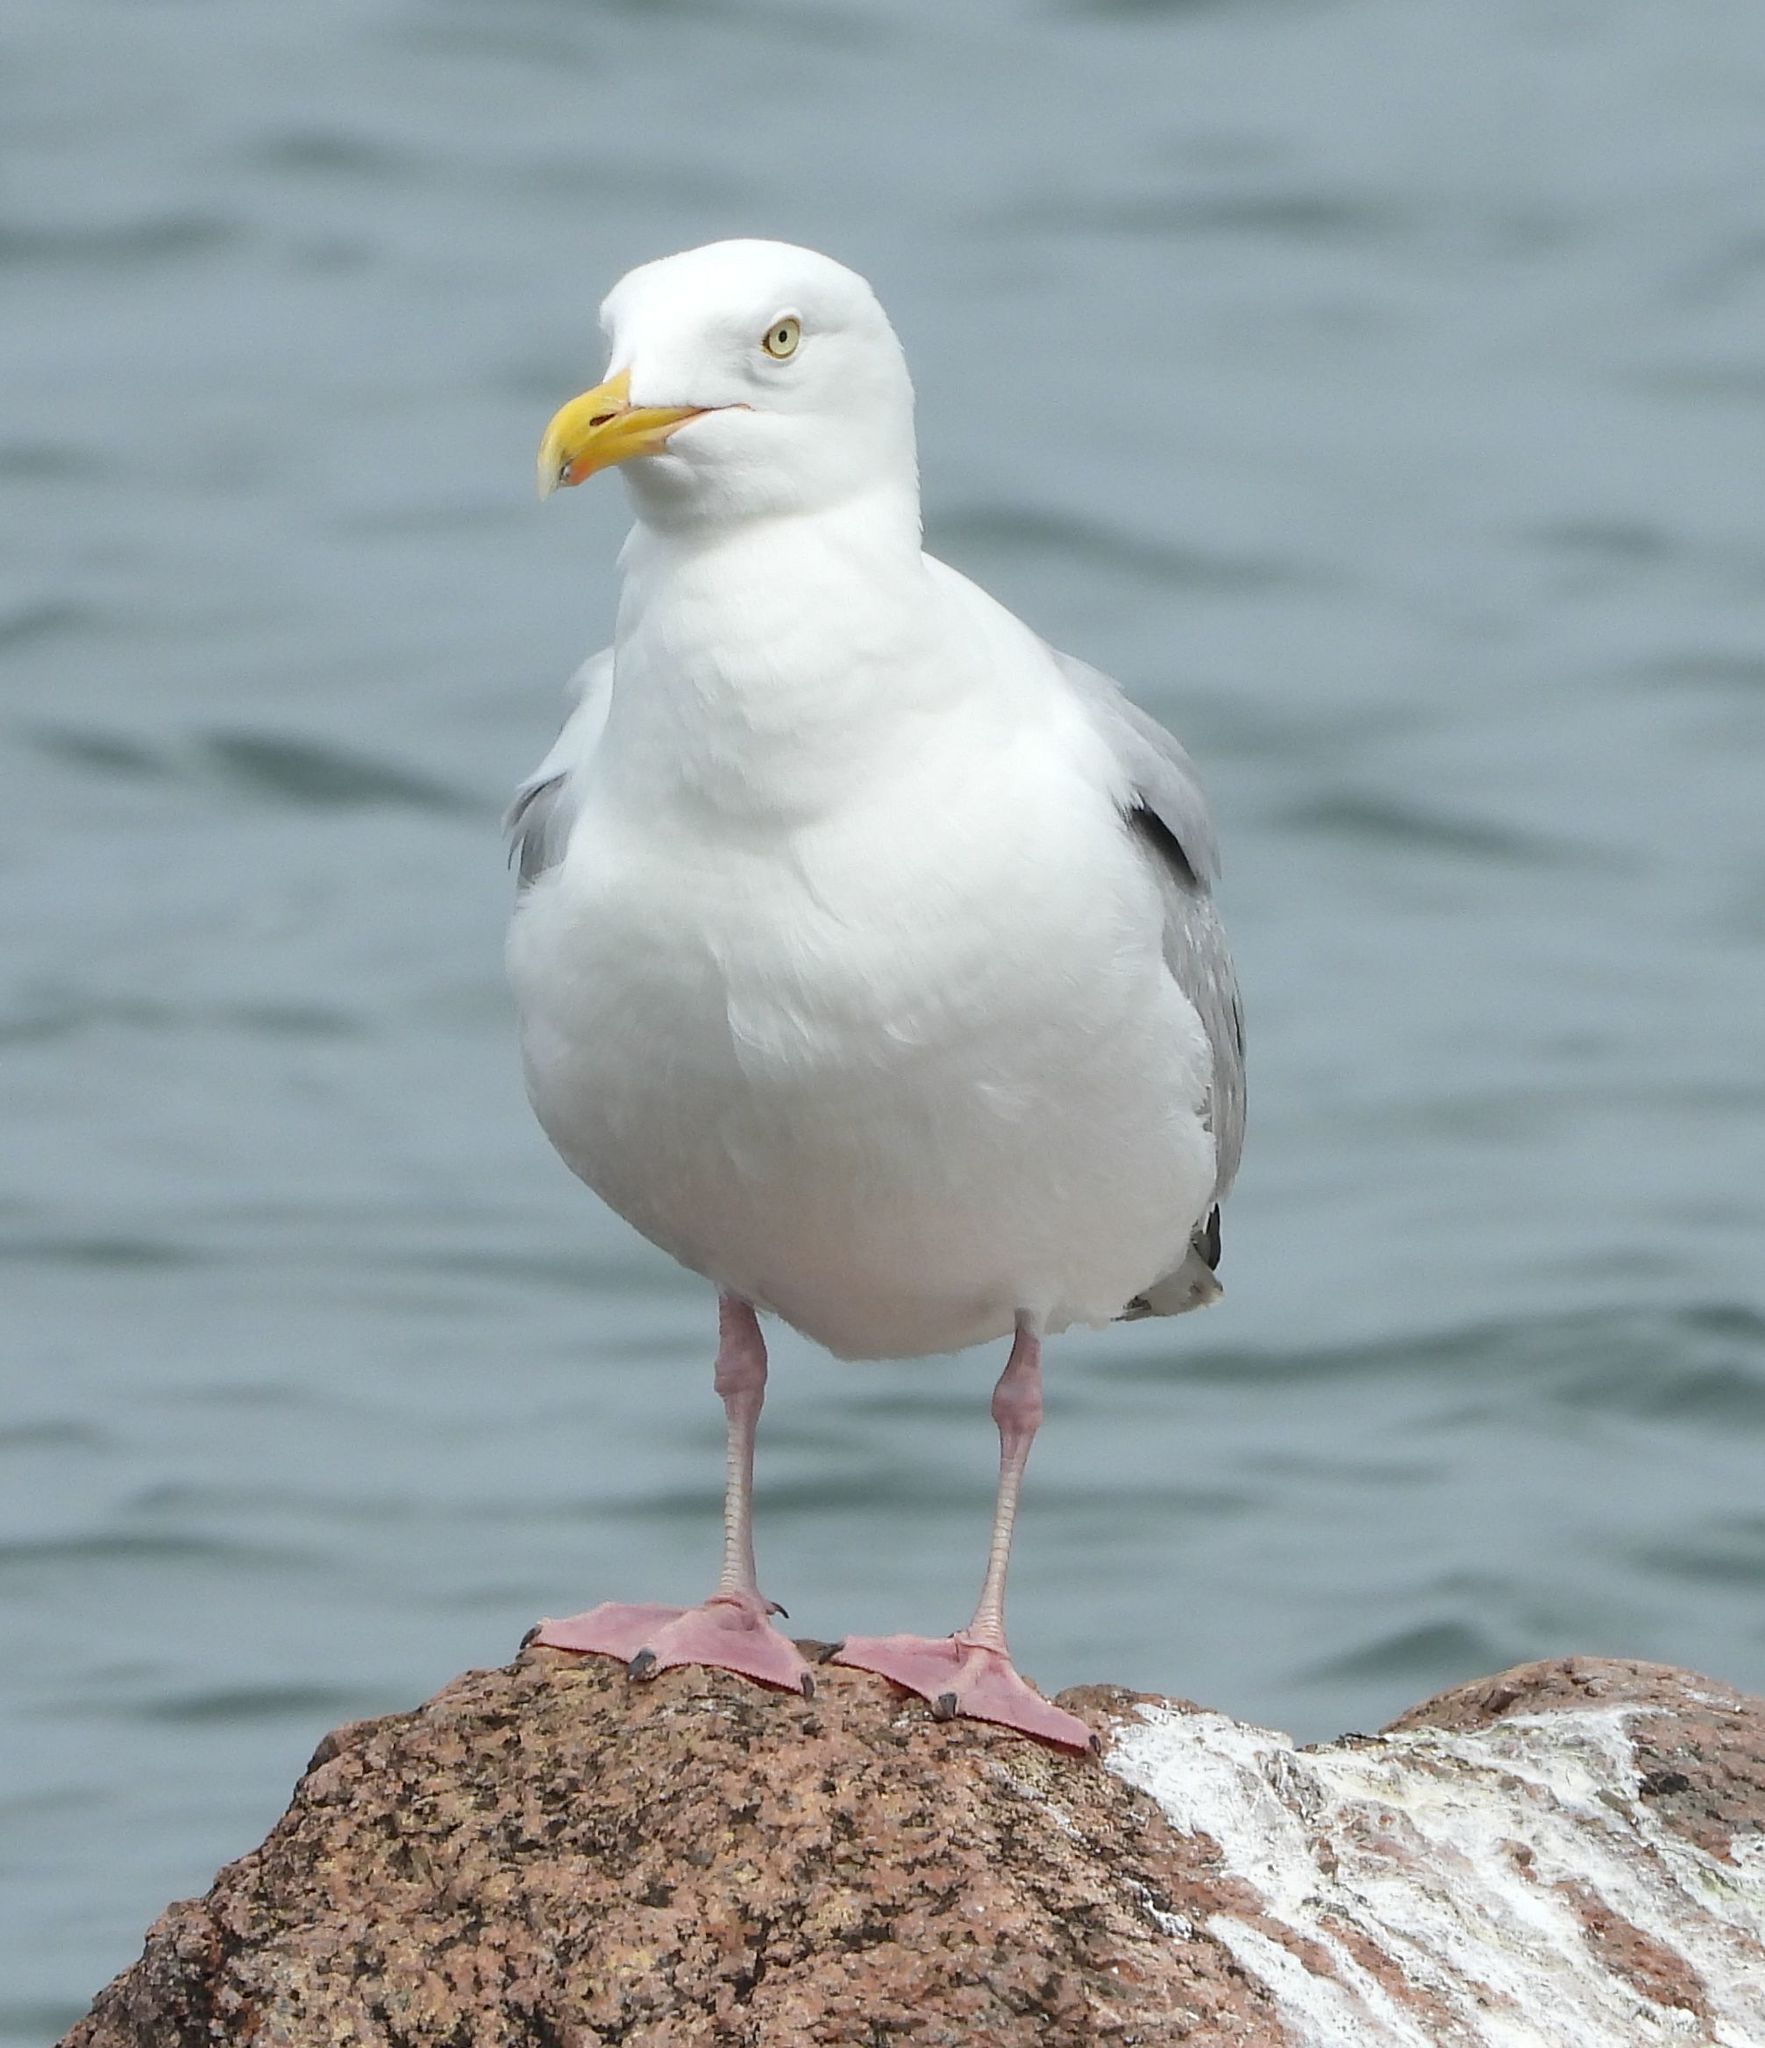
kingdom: Animalia
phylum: Chordata
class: Aves
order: Charadriiformes
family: Laridae
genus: Larus
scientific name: Larus argentatus
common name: Herring gull
